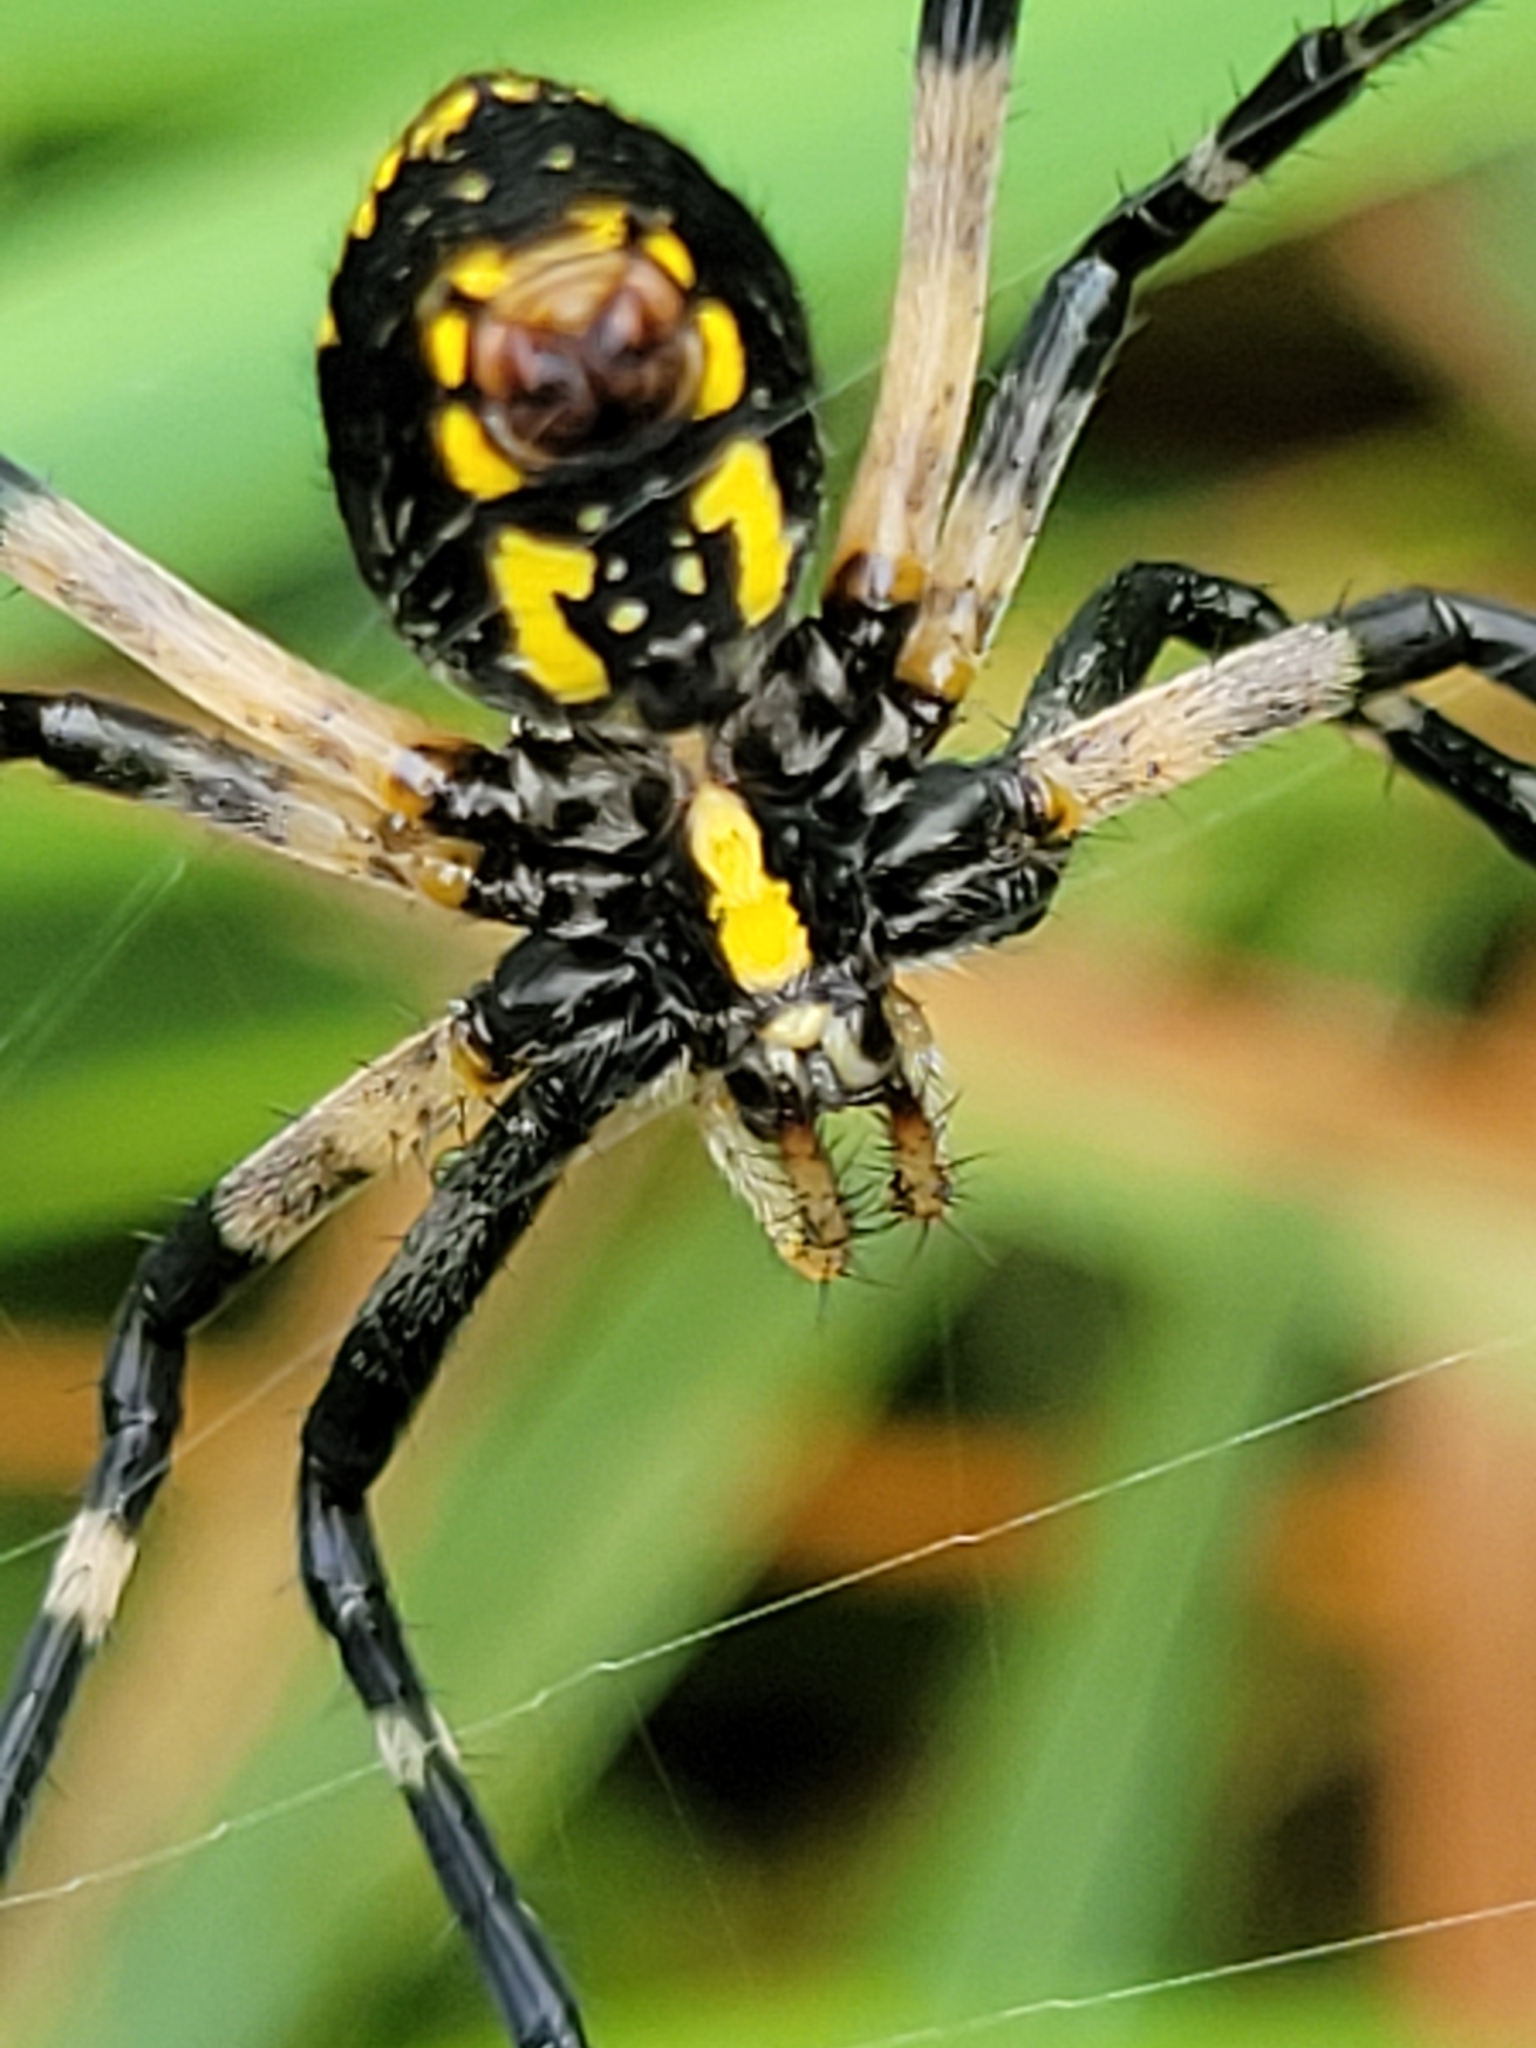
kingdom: Animalia
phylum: Arthropoda
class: Arachnida
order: Araneae
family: Araneidae
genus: Argiope
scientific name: Argiope aurantia
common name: Orb weavers
